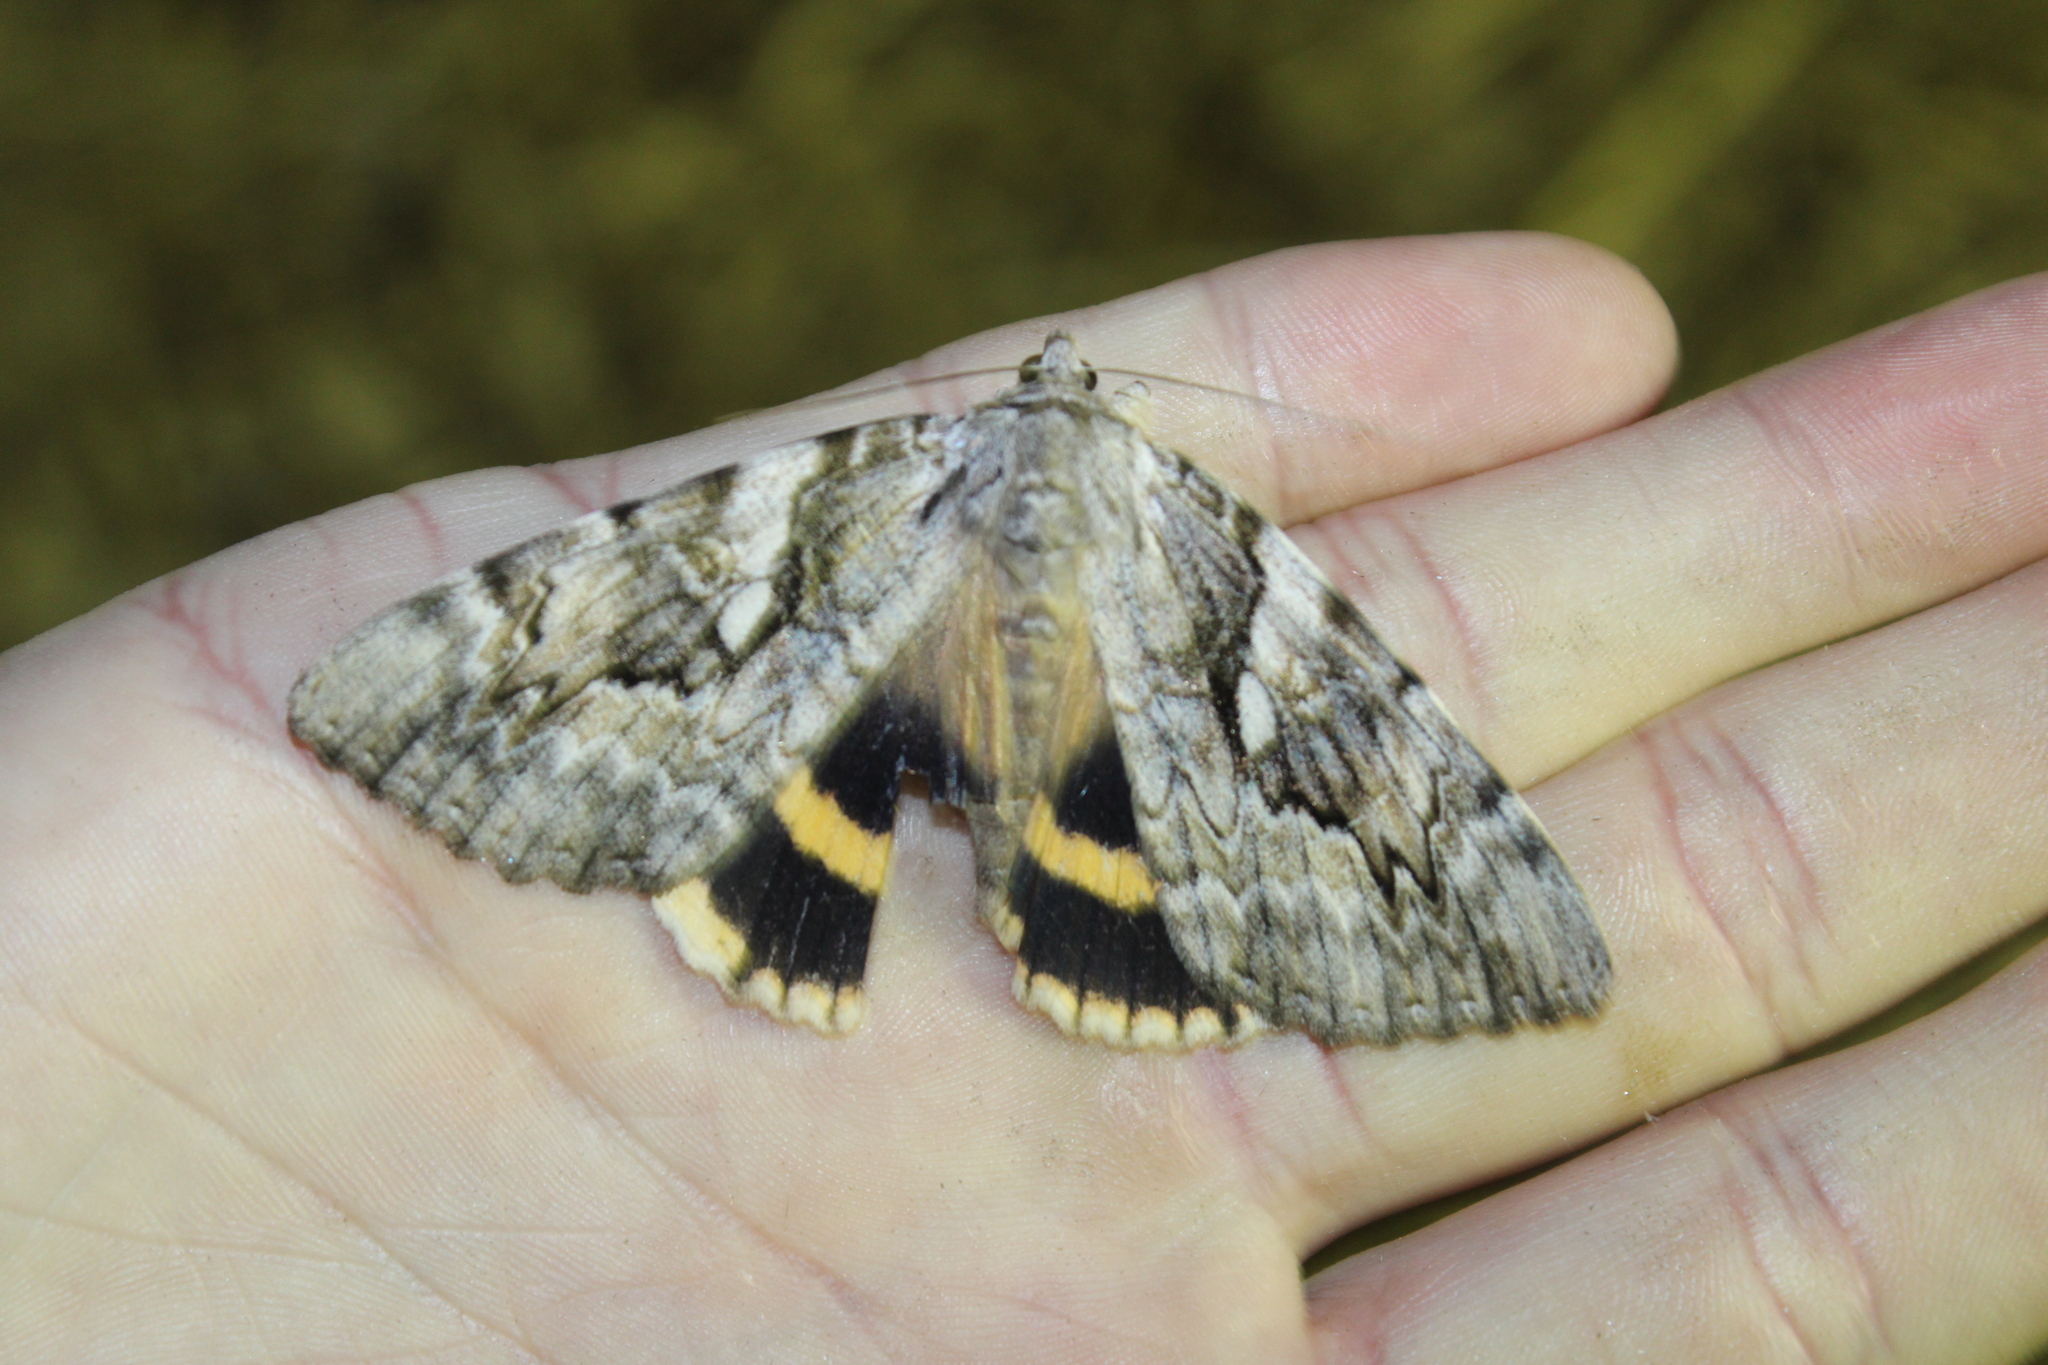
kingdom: Animalia
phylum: Arthropoda
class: Insecta
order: Lepidoptera
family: Erebidae
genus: Catocala
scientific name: Catocala cerogama
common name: Yellow banded underwing
